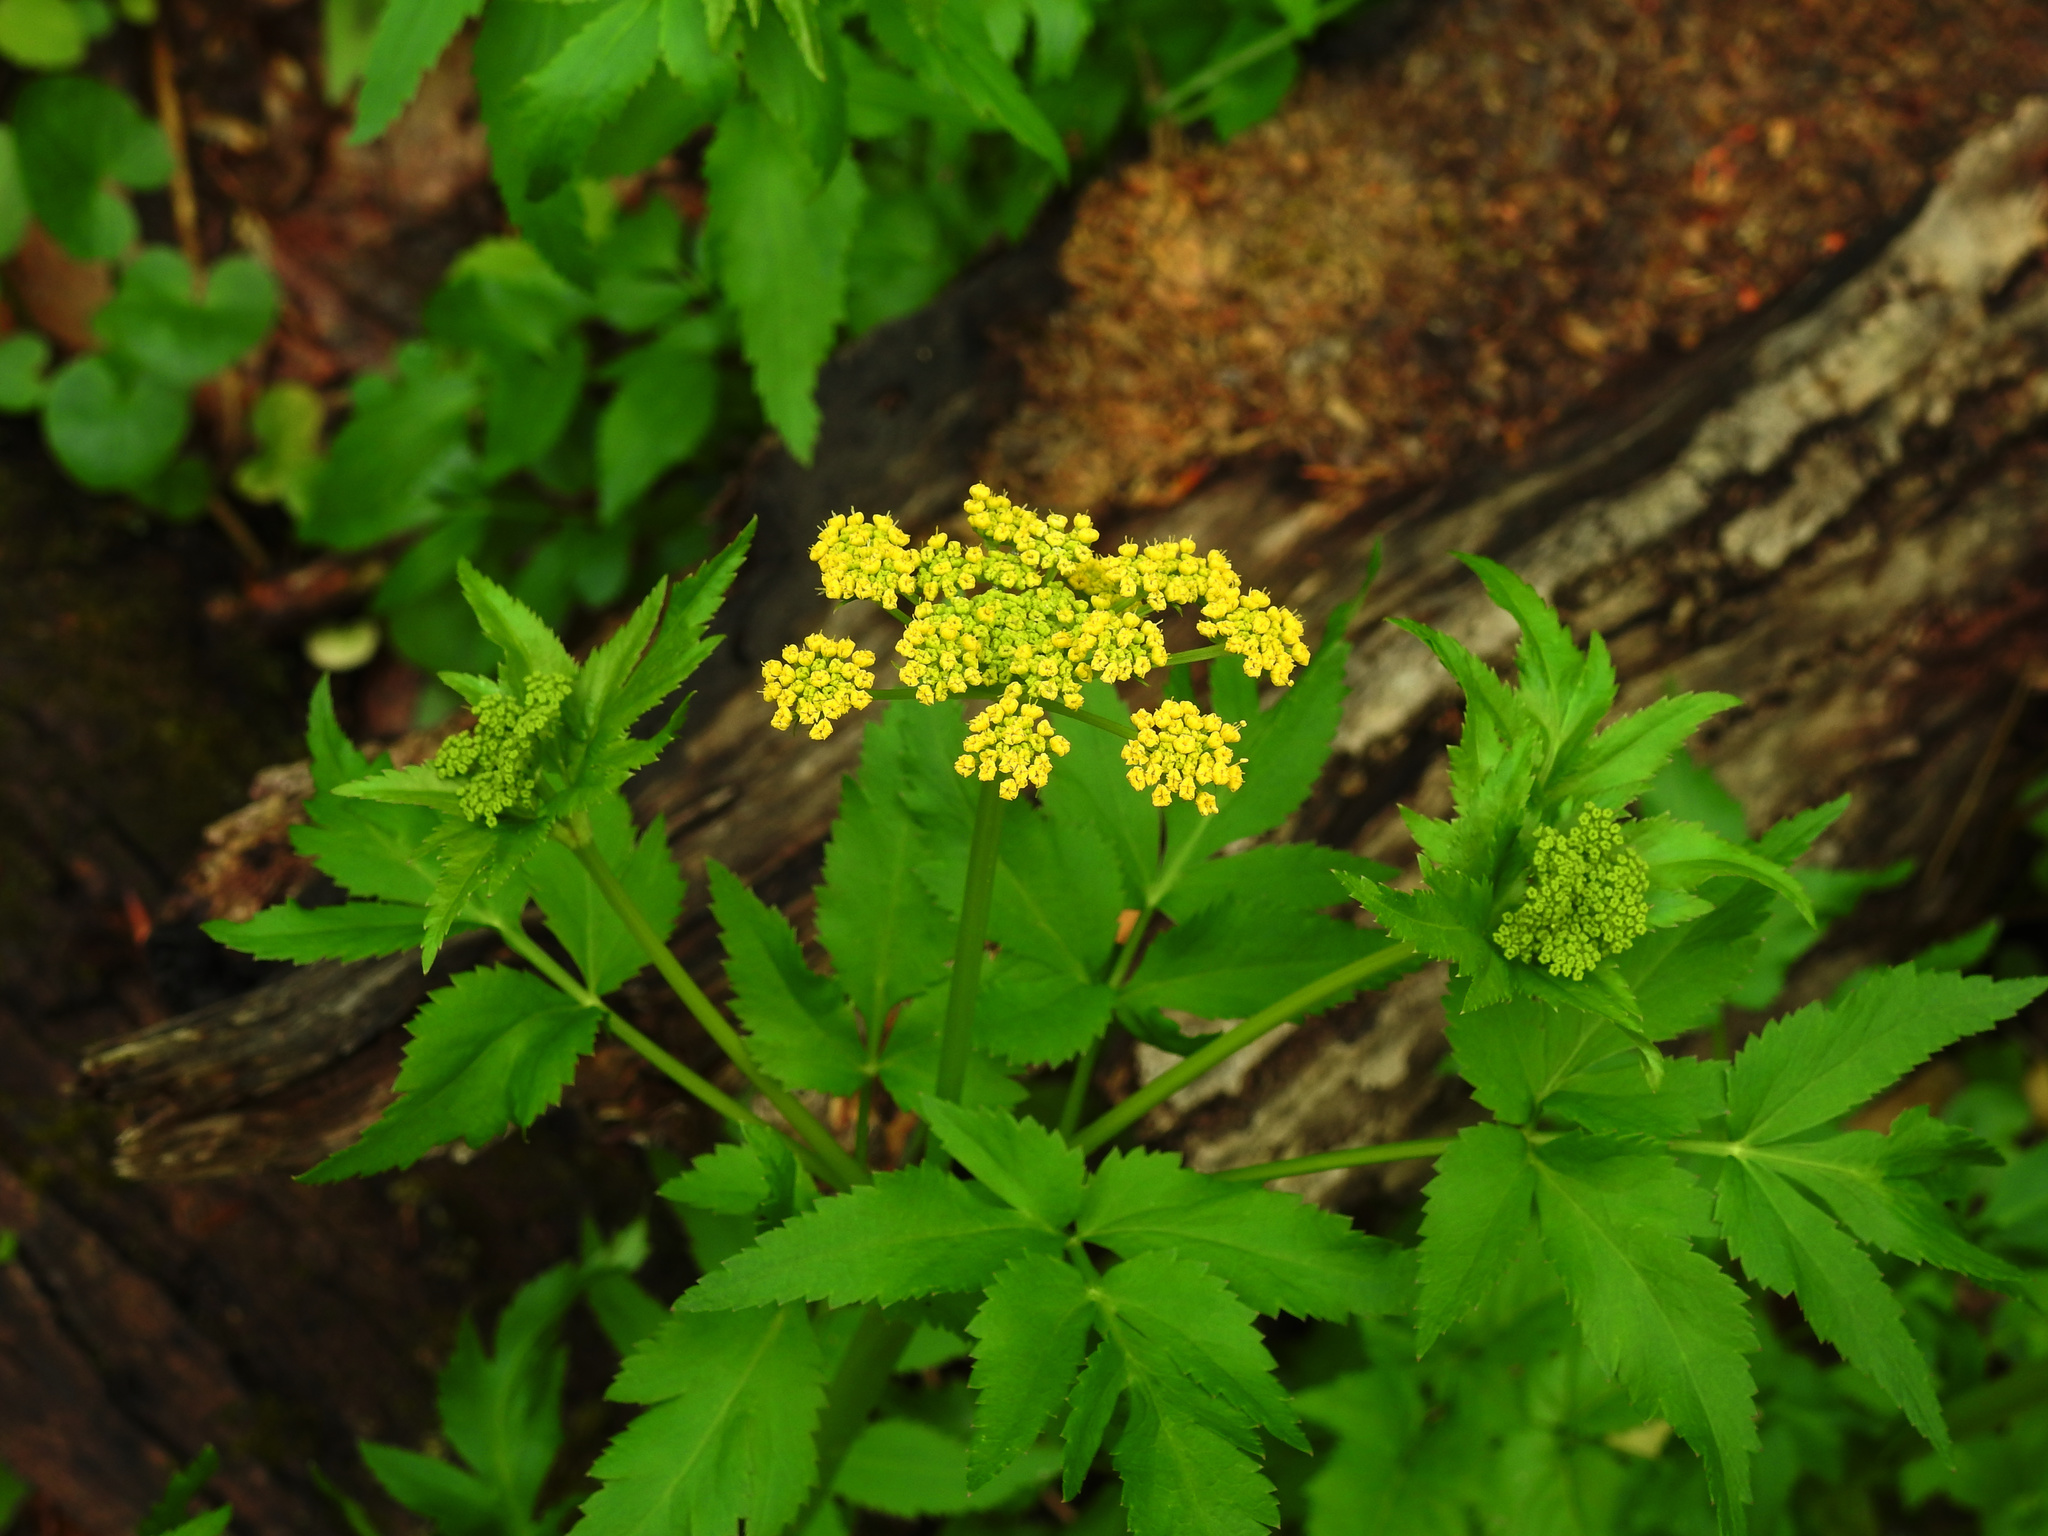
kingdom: Plantae
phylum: Tracheophyta
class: Magnoliopsida
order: Apiales
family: Apiaceae
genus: Zizia
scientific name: Zizia aurea
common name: Golden alexanders
